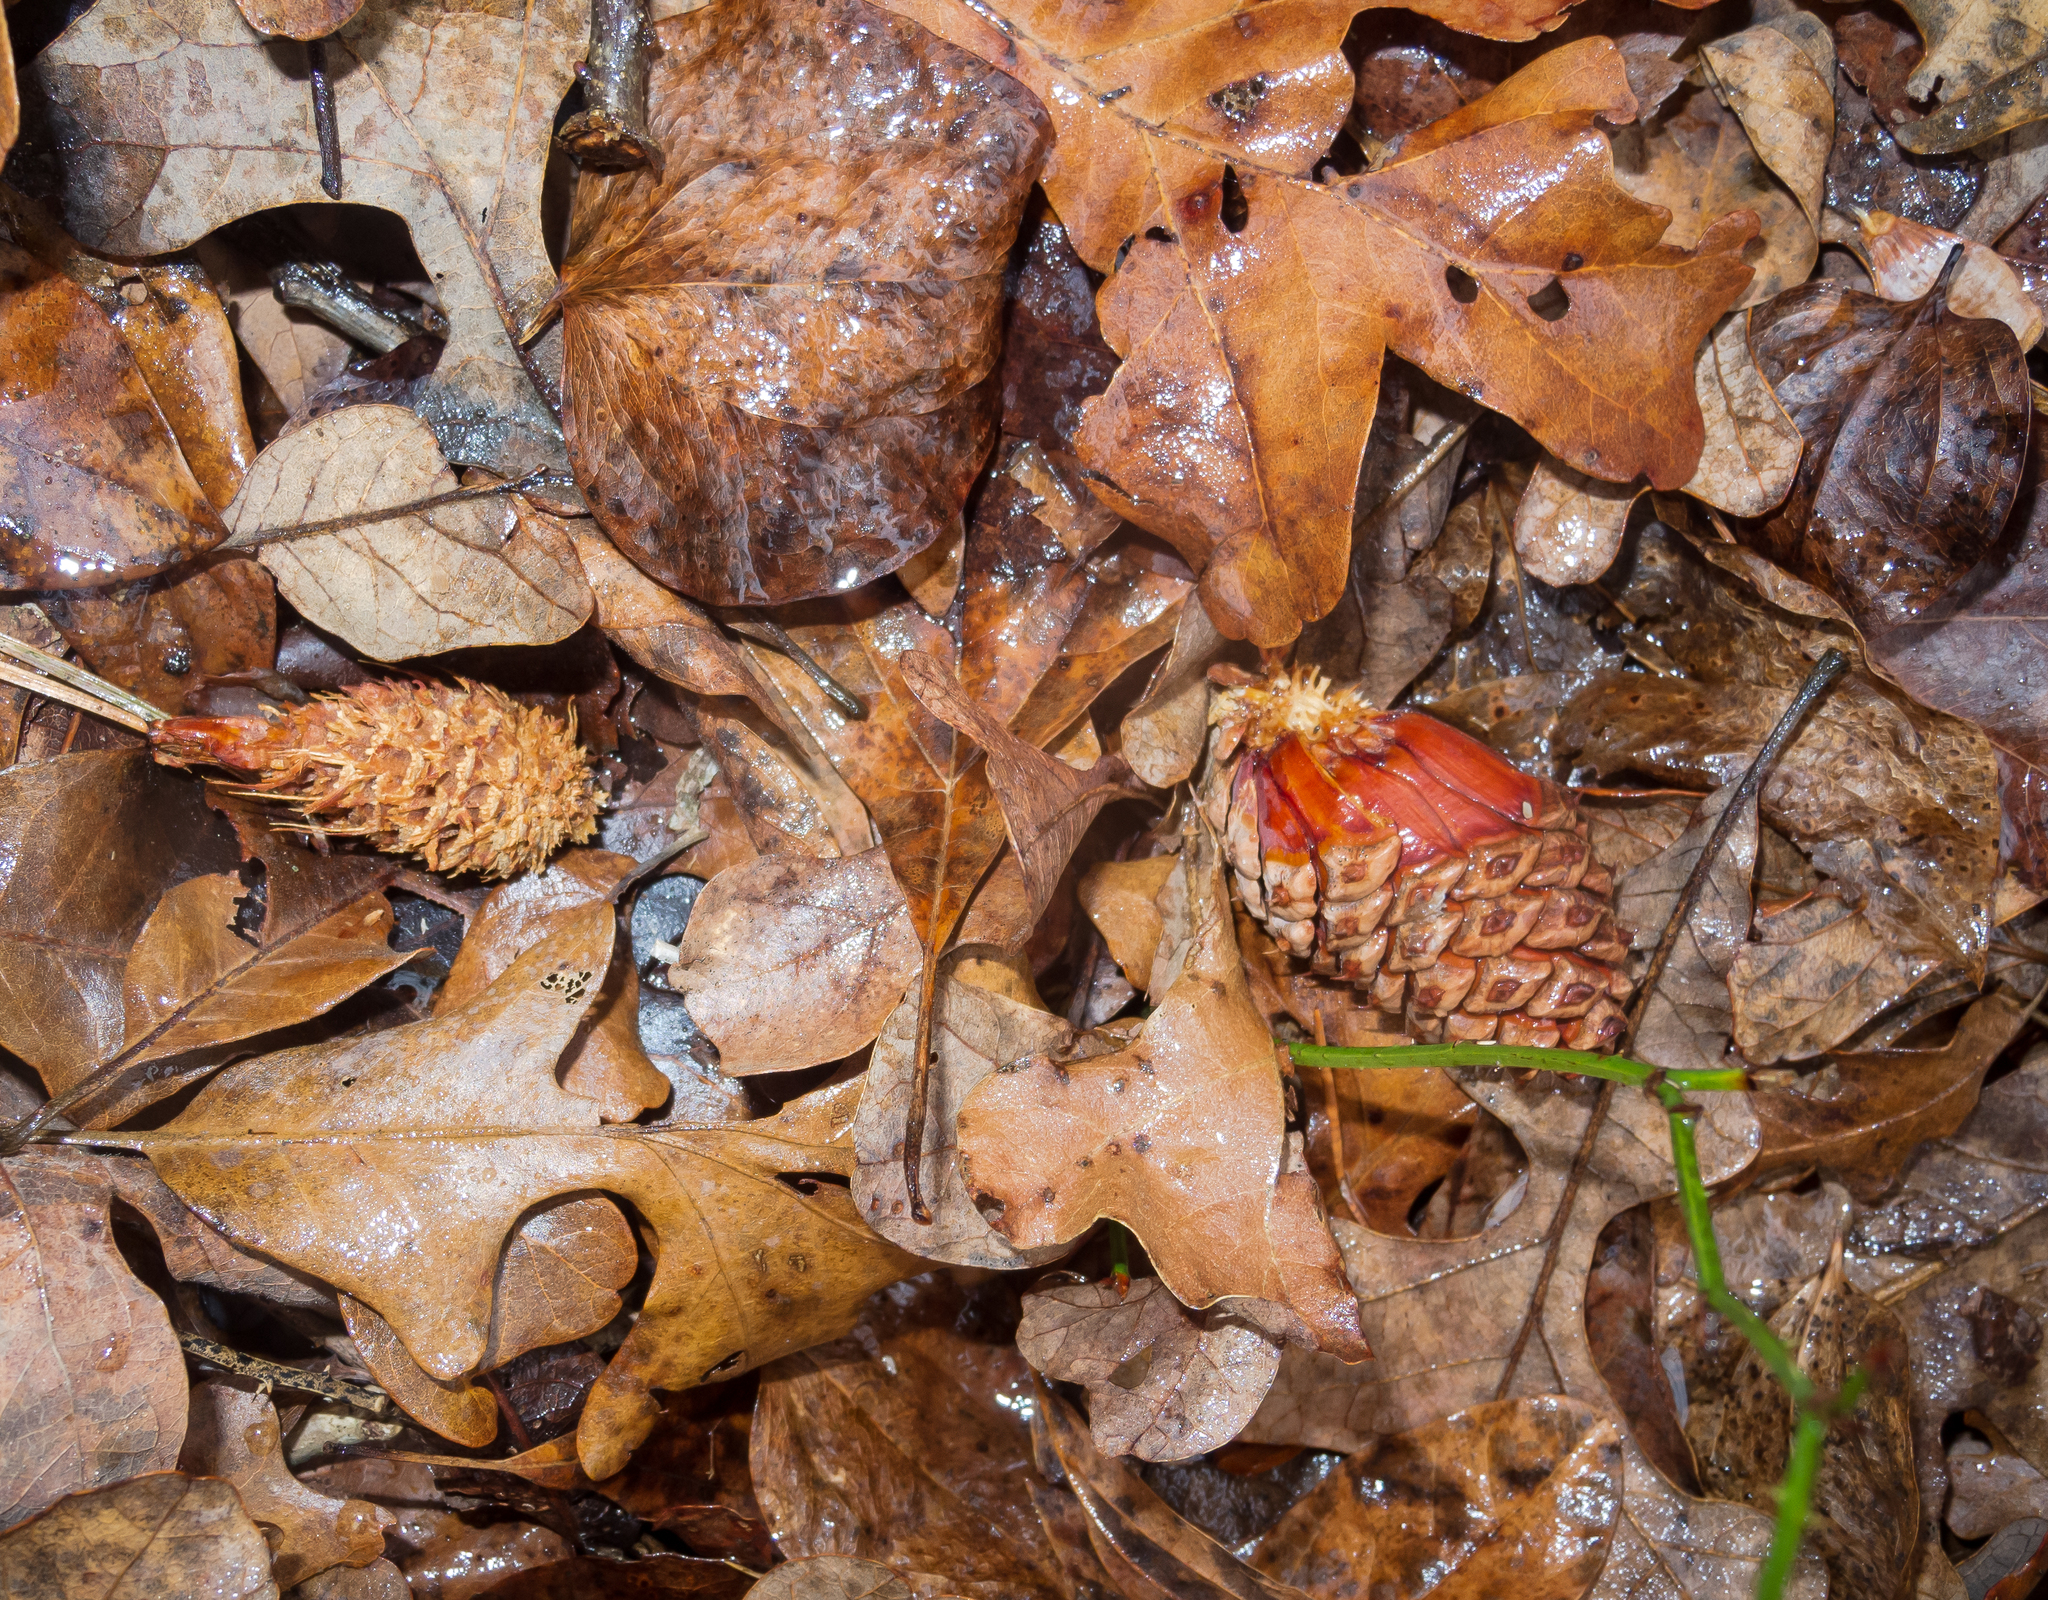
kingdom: Plantae
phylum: Tracheophyta
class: Pinopsida
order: Pinales
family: Pinaceae
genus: Pinus
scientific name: Pinus rigida
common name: Pitch pine
